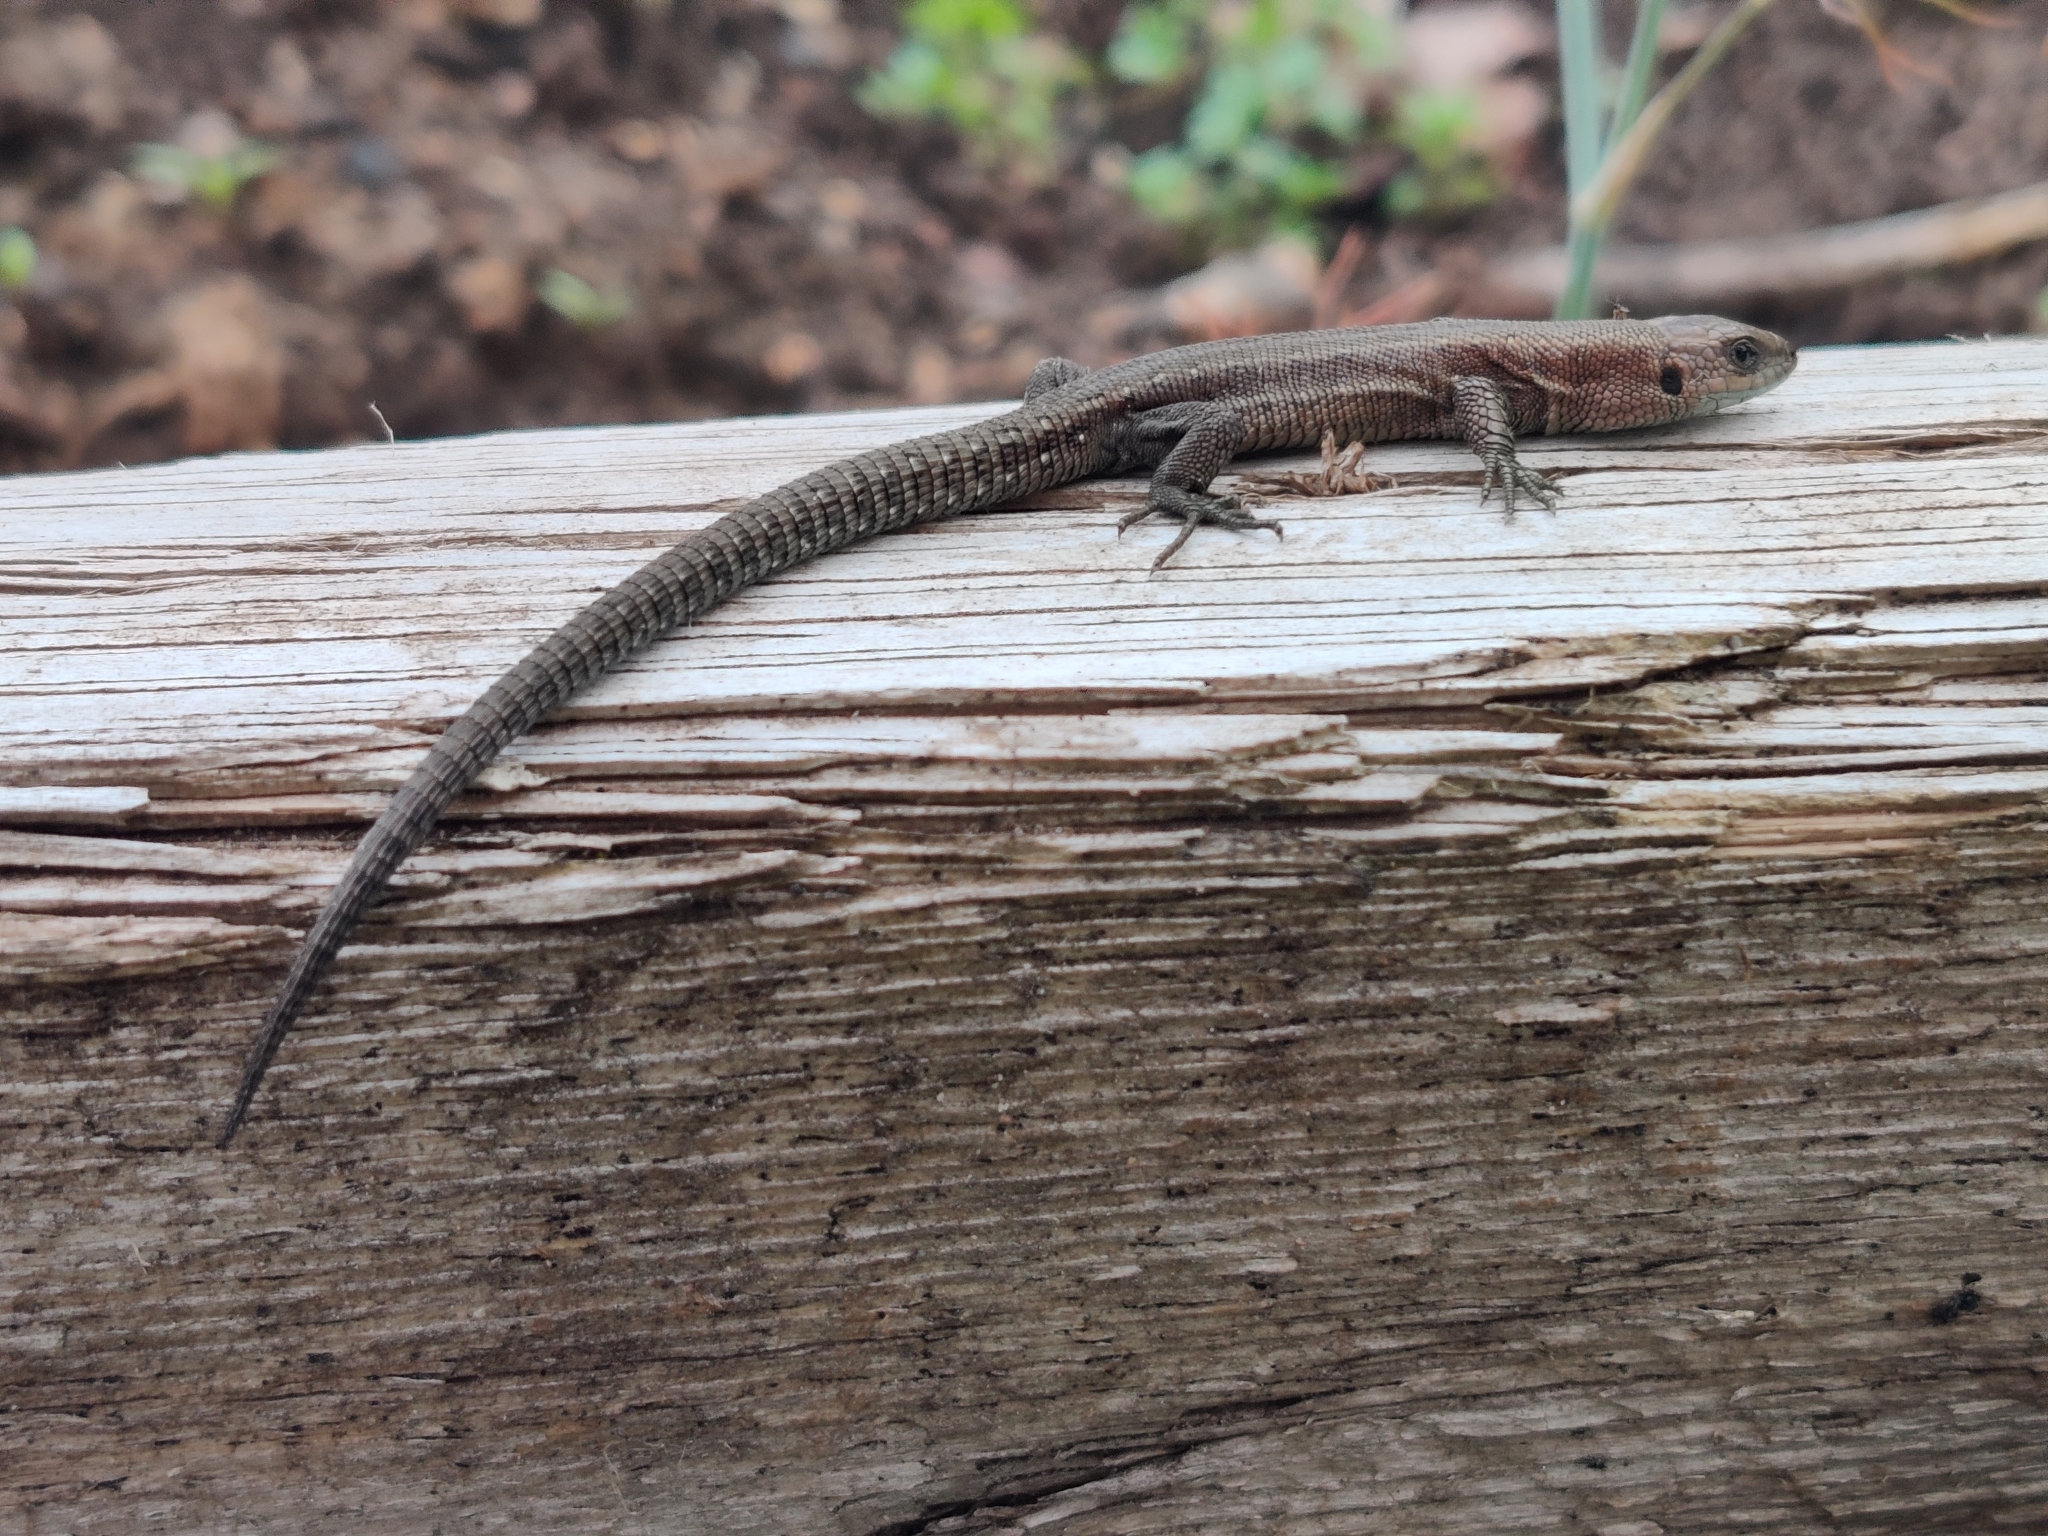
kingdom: Animalia
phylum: Chordata
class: Squamata
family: Lacertidae
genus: Zootoca
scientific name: Zootoca vivipara
